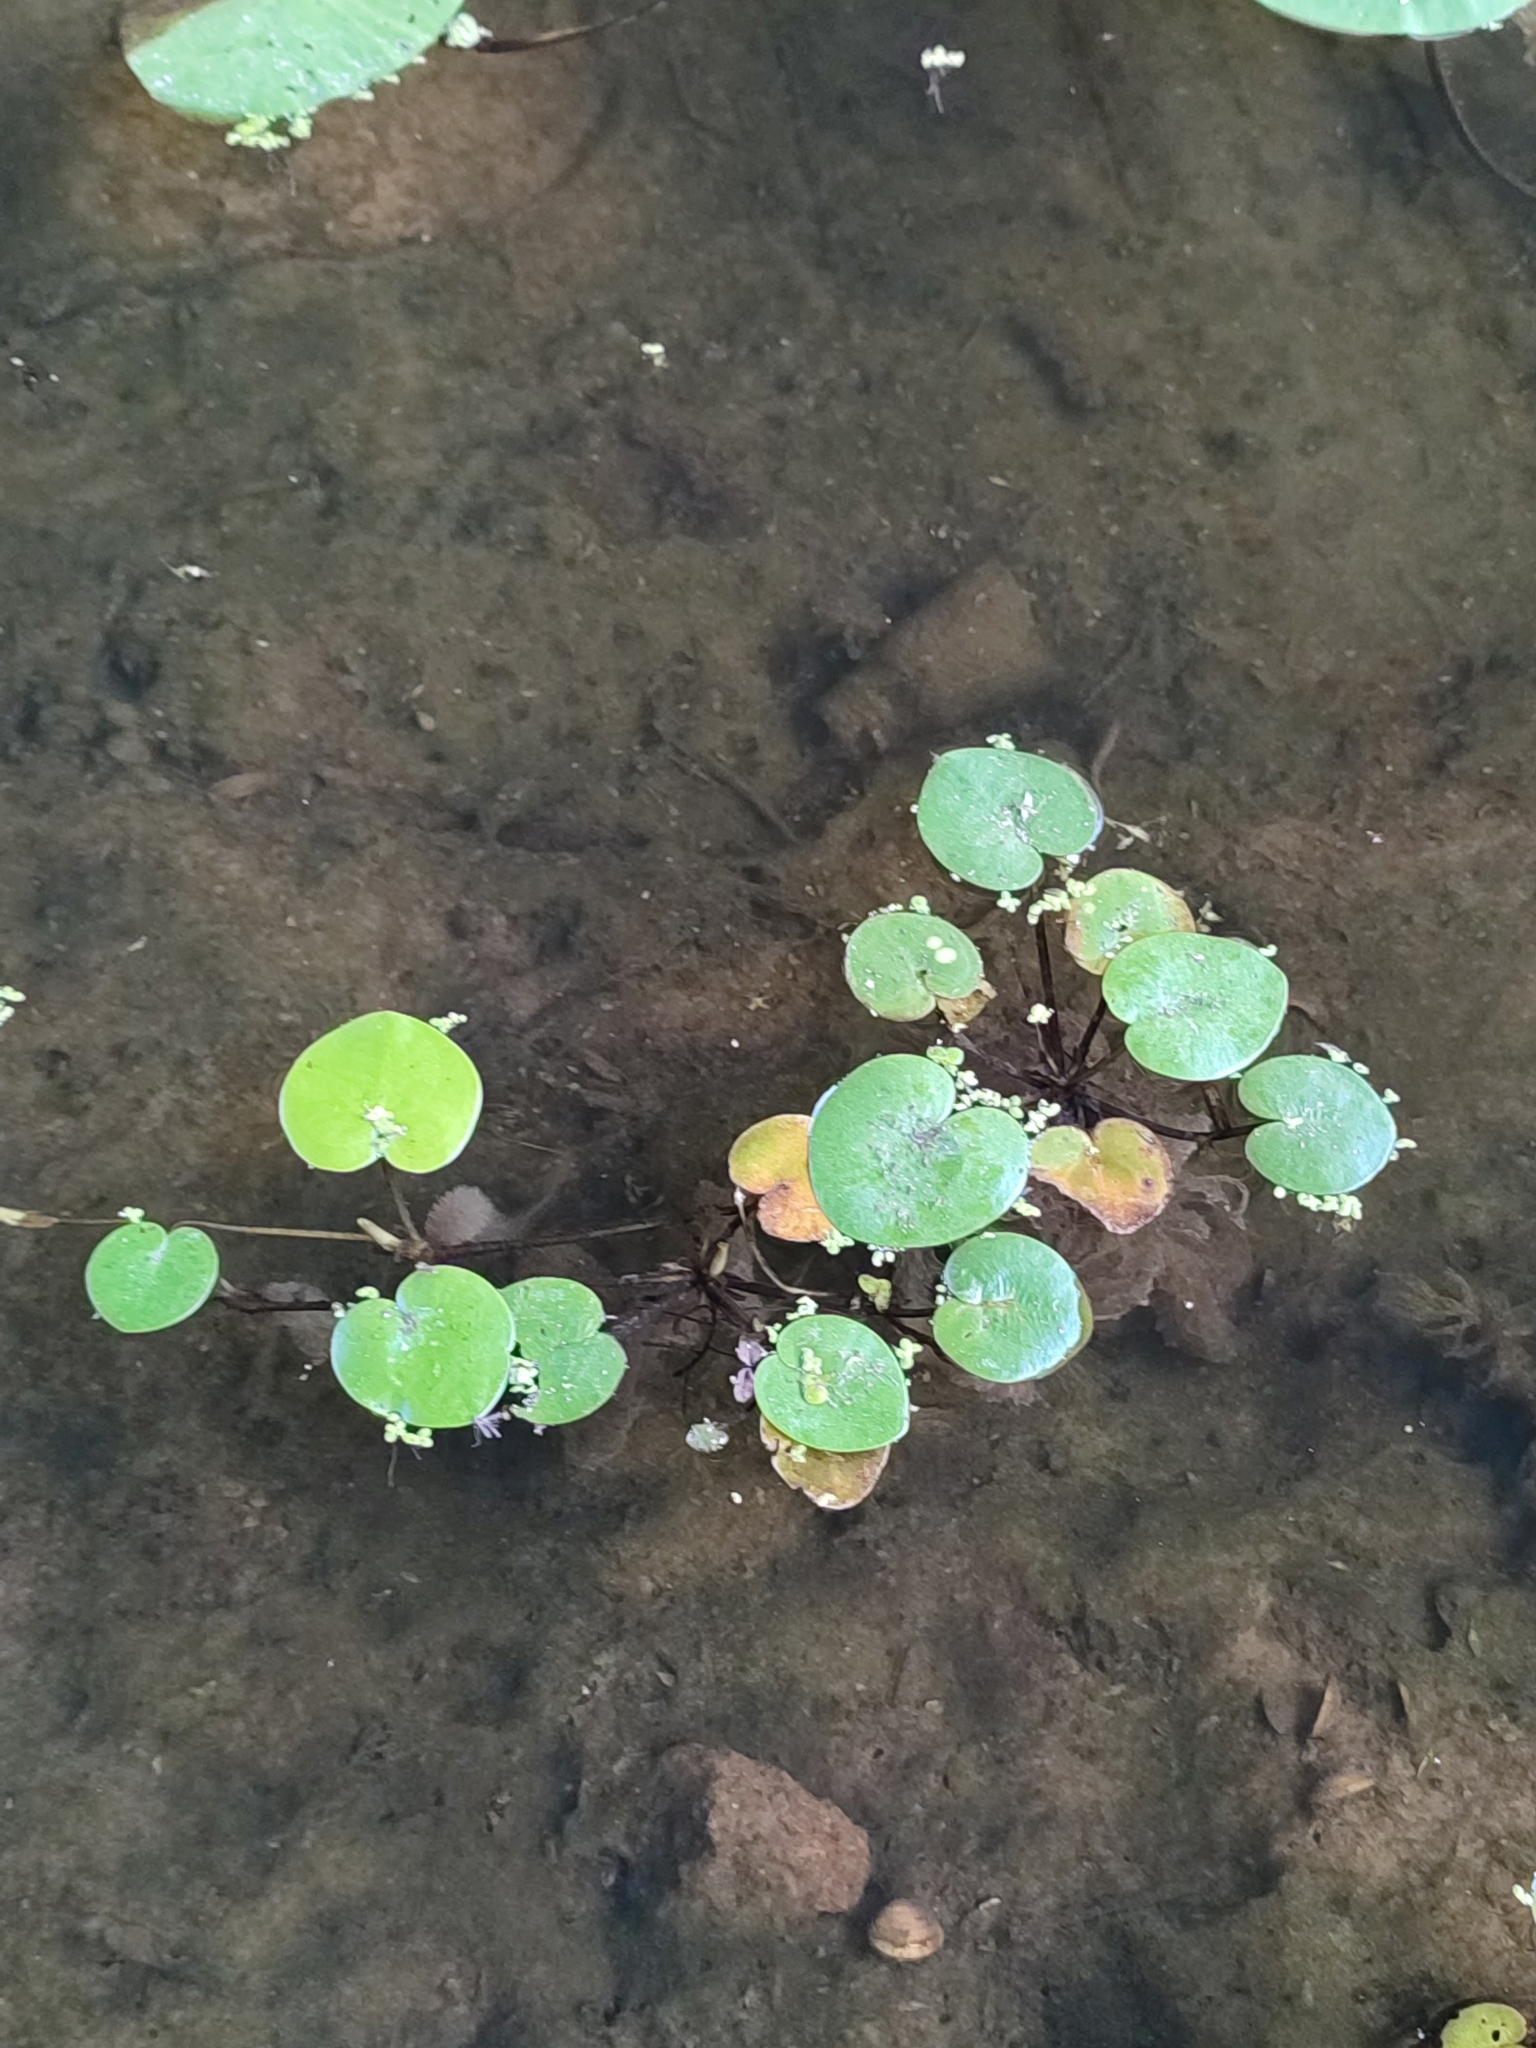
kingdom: Plantae
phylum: Tracheophyta
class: Liliopsida
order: Alismatales
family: Hydrocharitaceae
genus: Hydrocharis
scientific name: Hydrocharis morsus-ranae
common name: Frogbit
